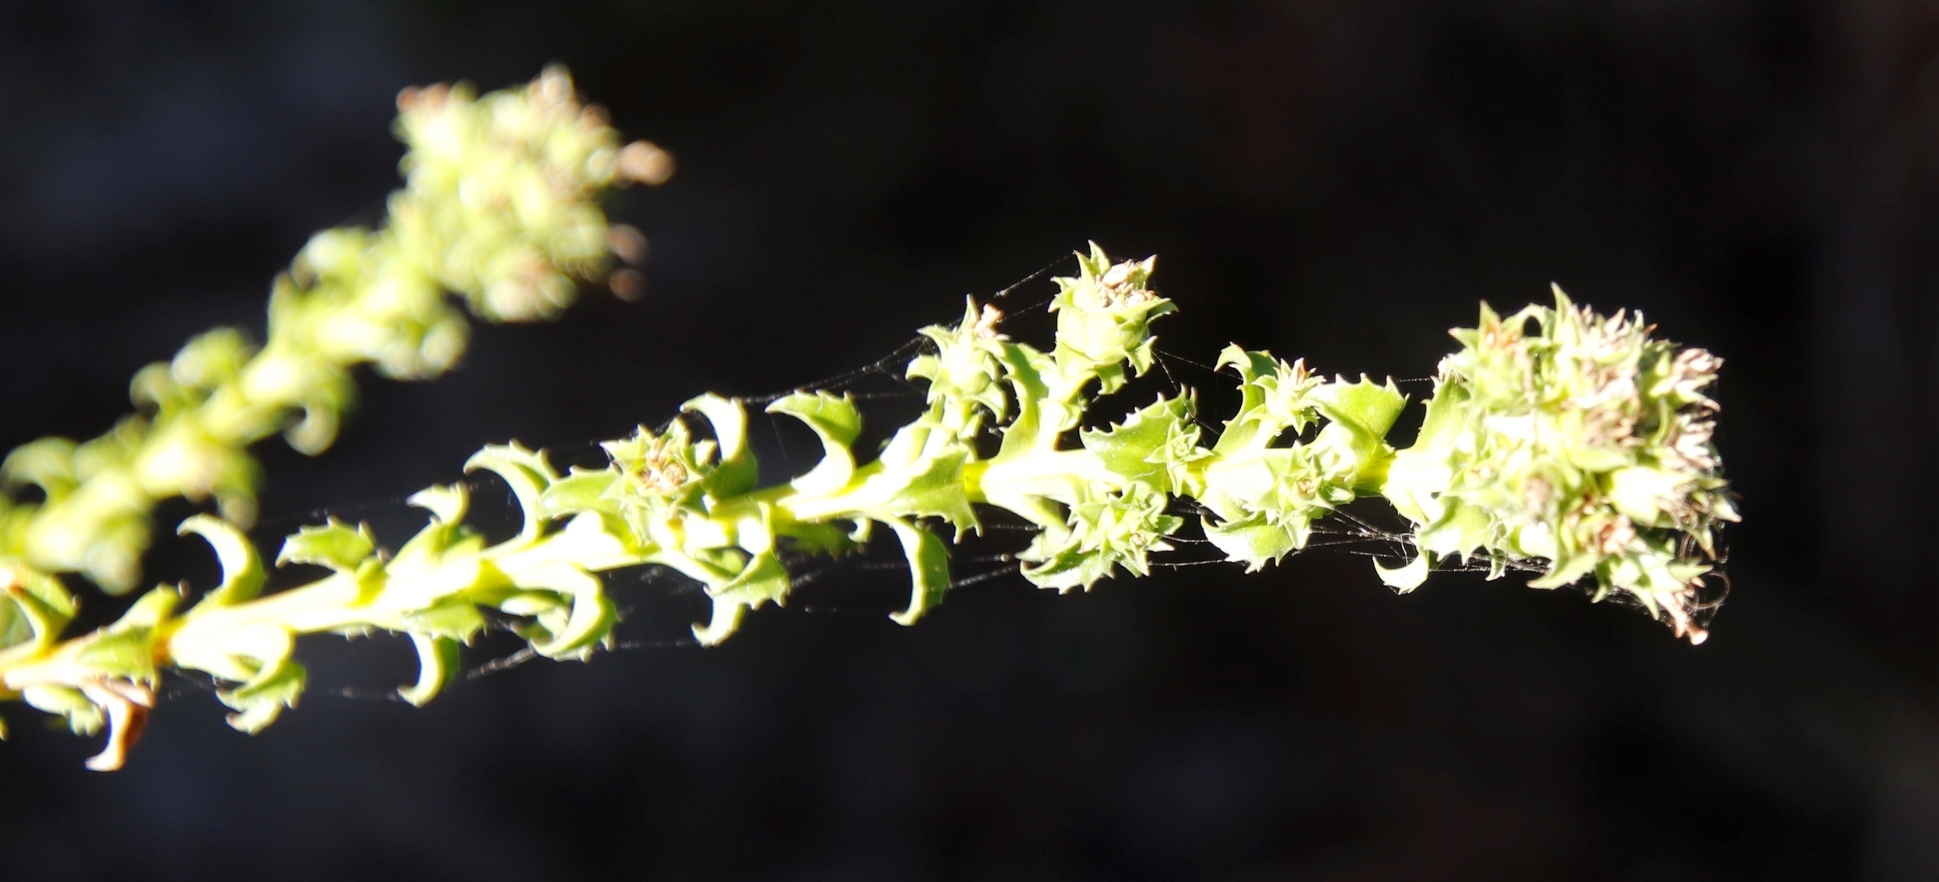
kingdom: Plantae
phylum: Tracheophyta
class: Magnoliopsida
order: Asterales
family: Campanulaceae
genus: Roella
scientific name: Roella amplexicaulis
